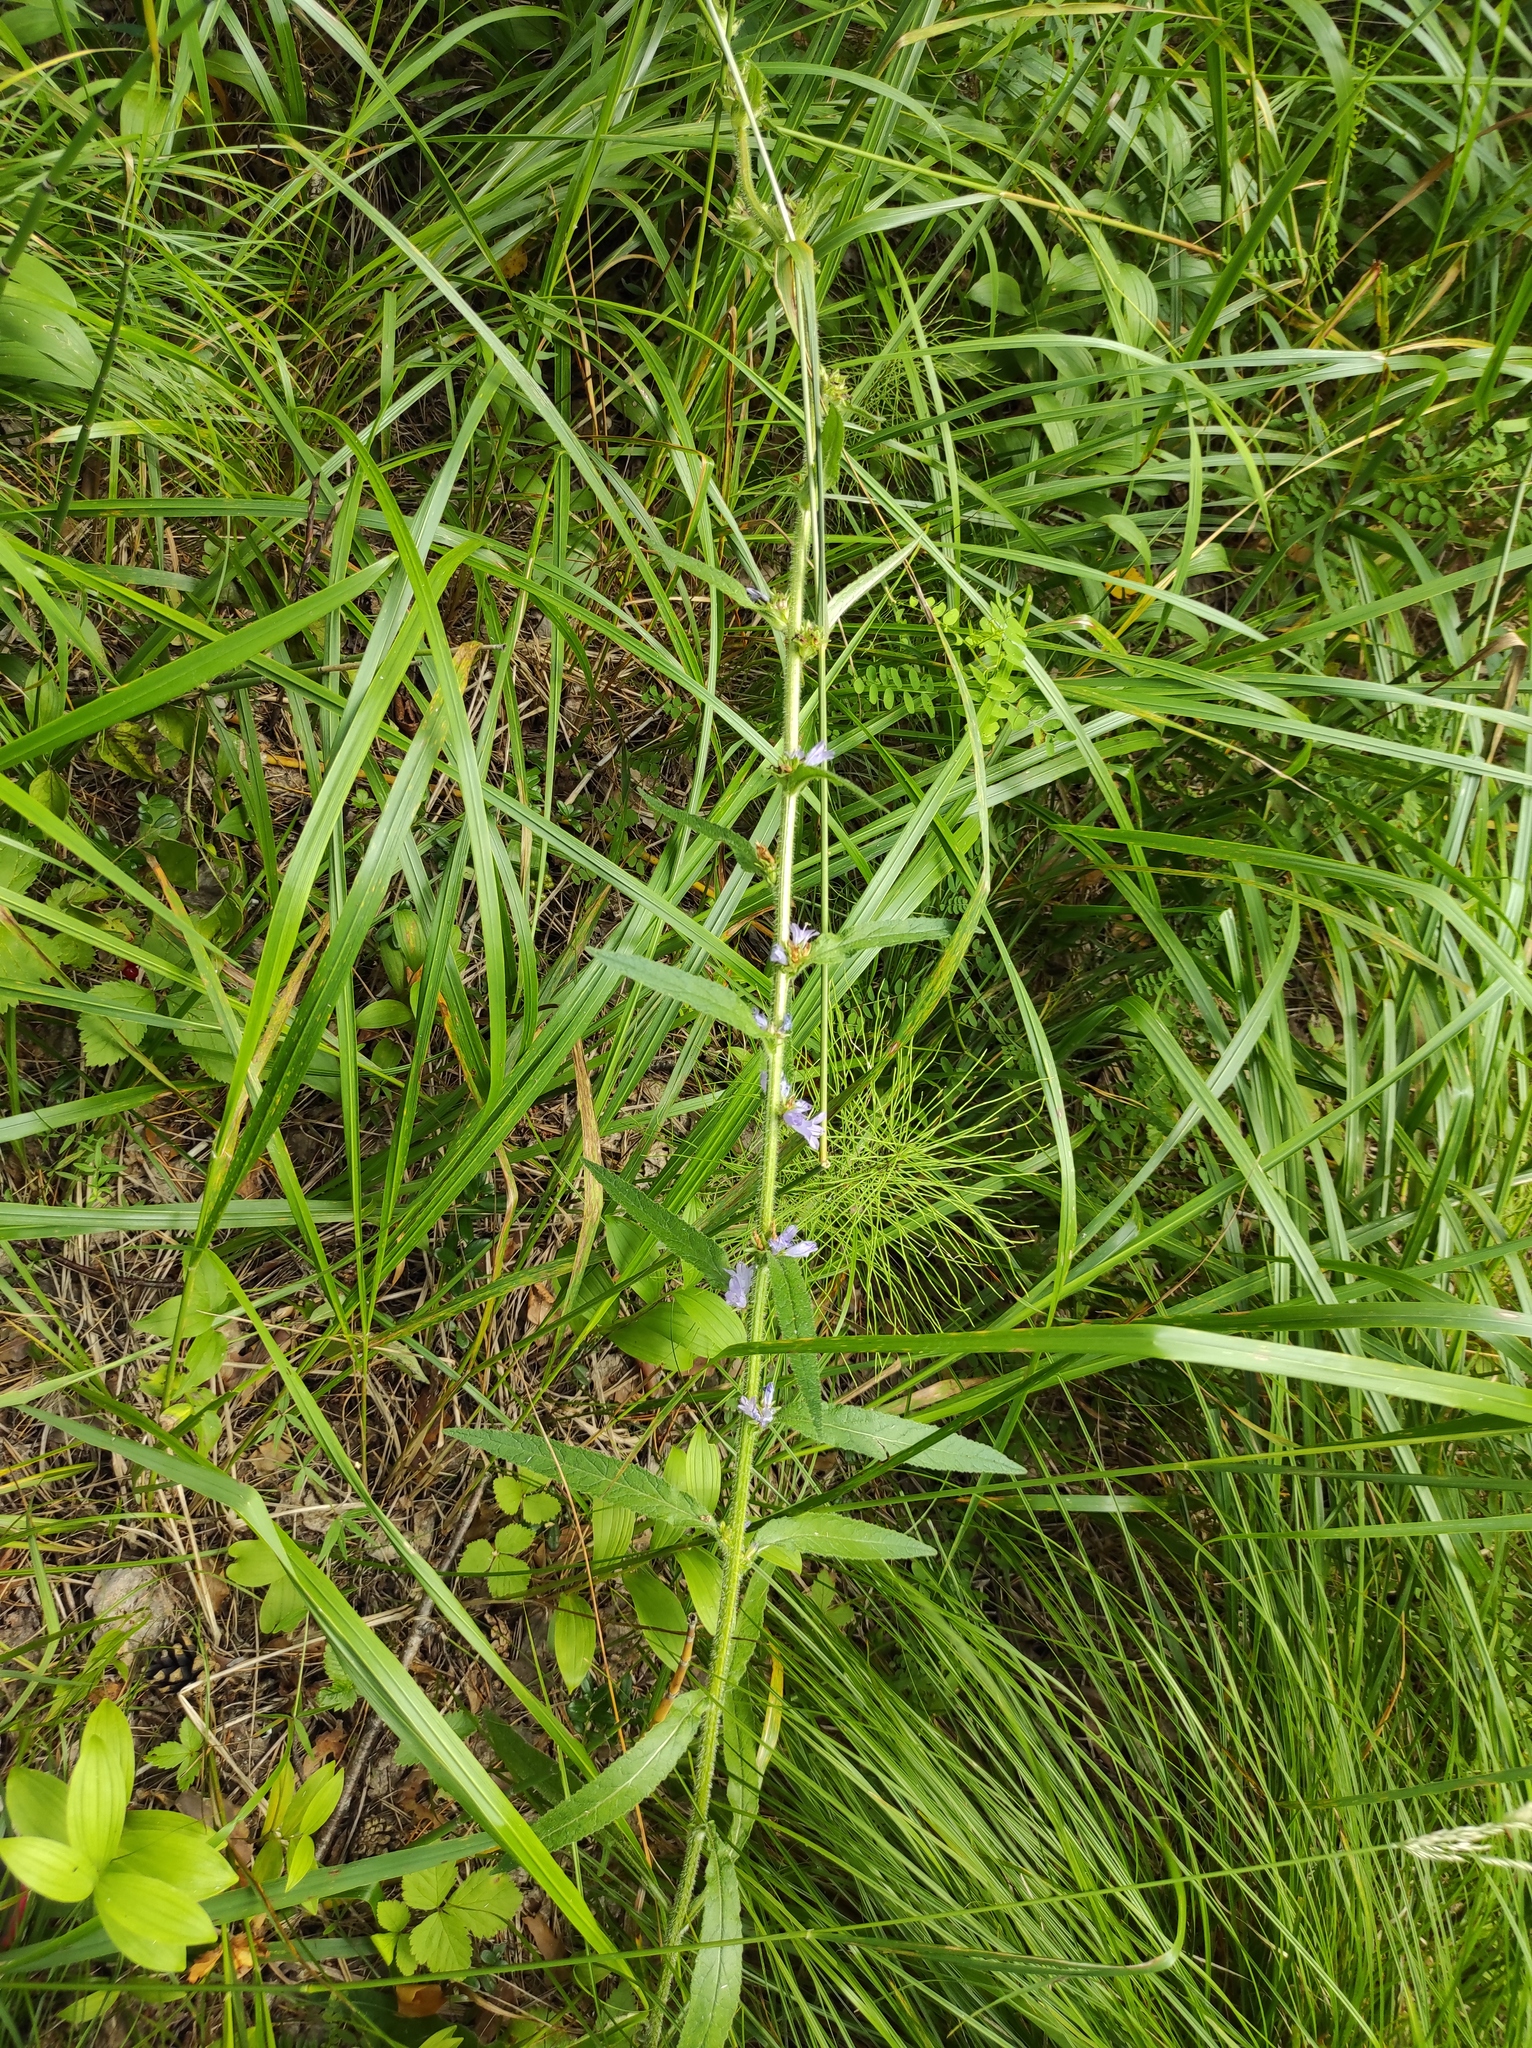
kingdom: Plantae
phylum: Tracheophyta
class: Magnoliopsida
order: Asterales
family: Campanulaceae
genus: Campanula
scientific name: Campanula cervicaria
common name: Bristly bellflower
